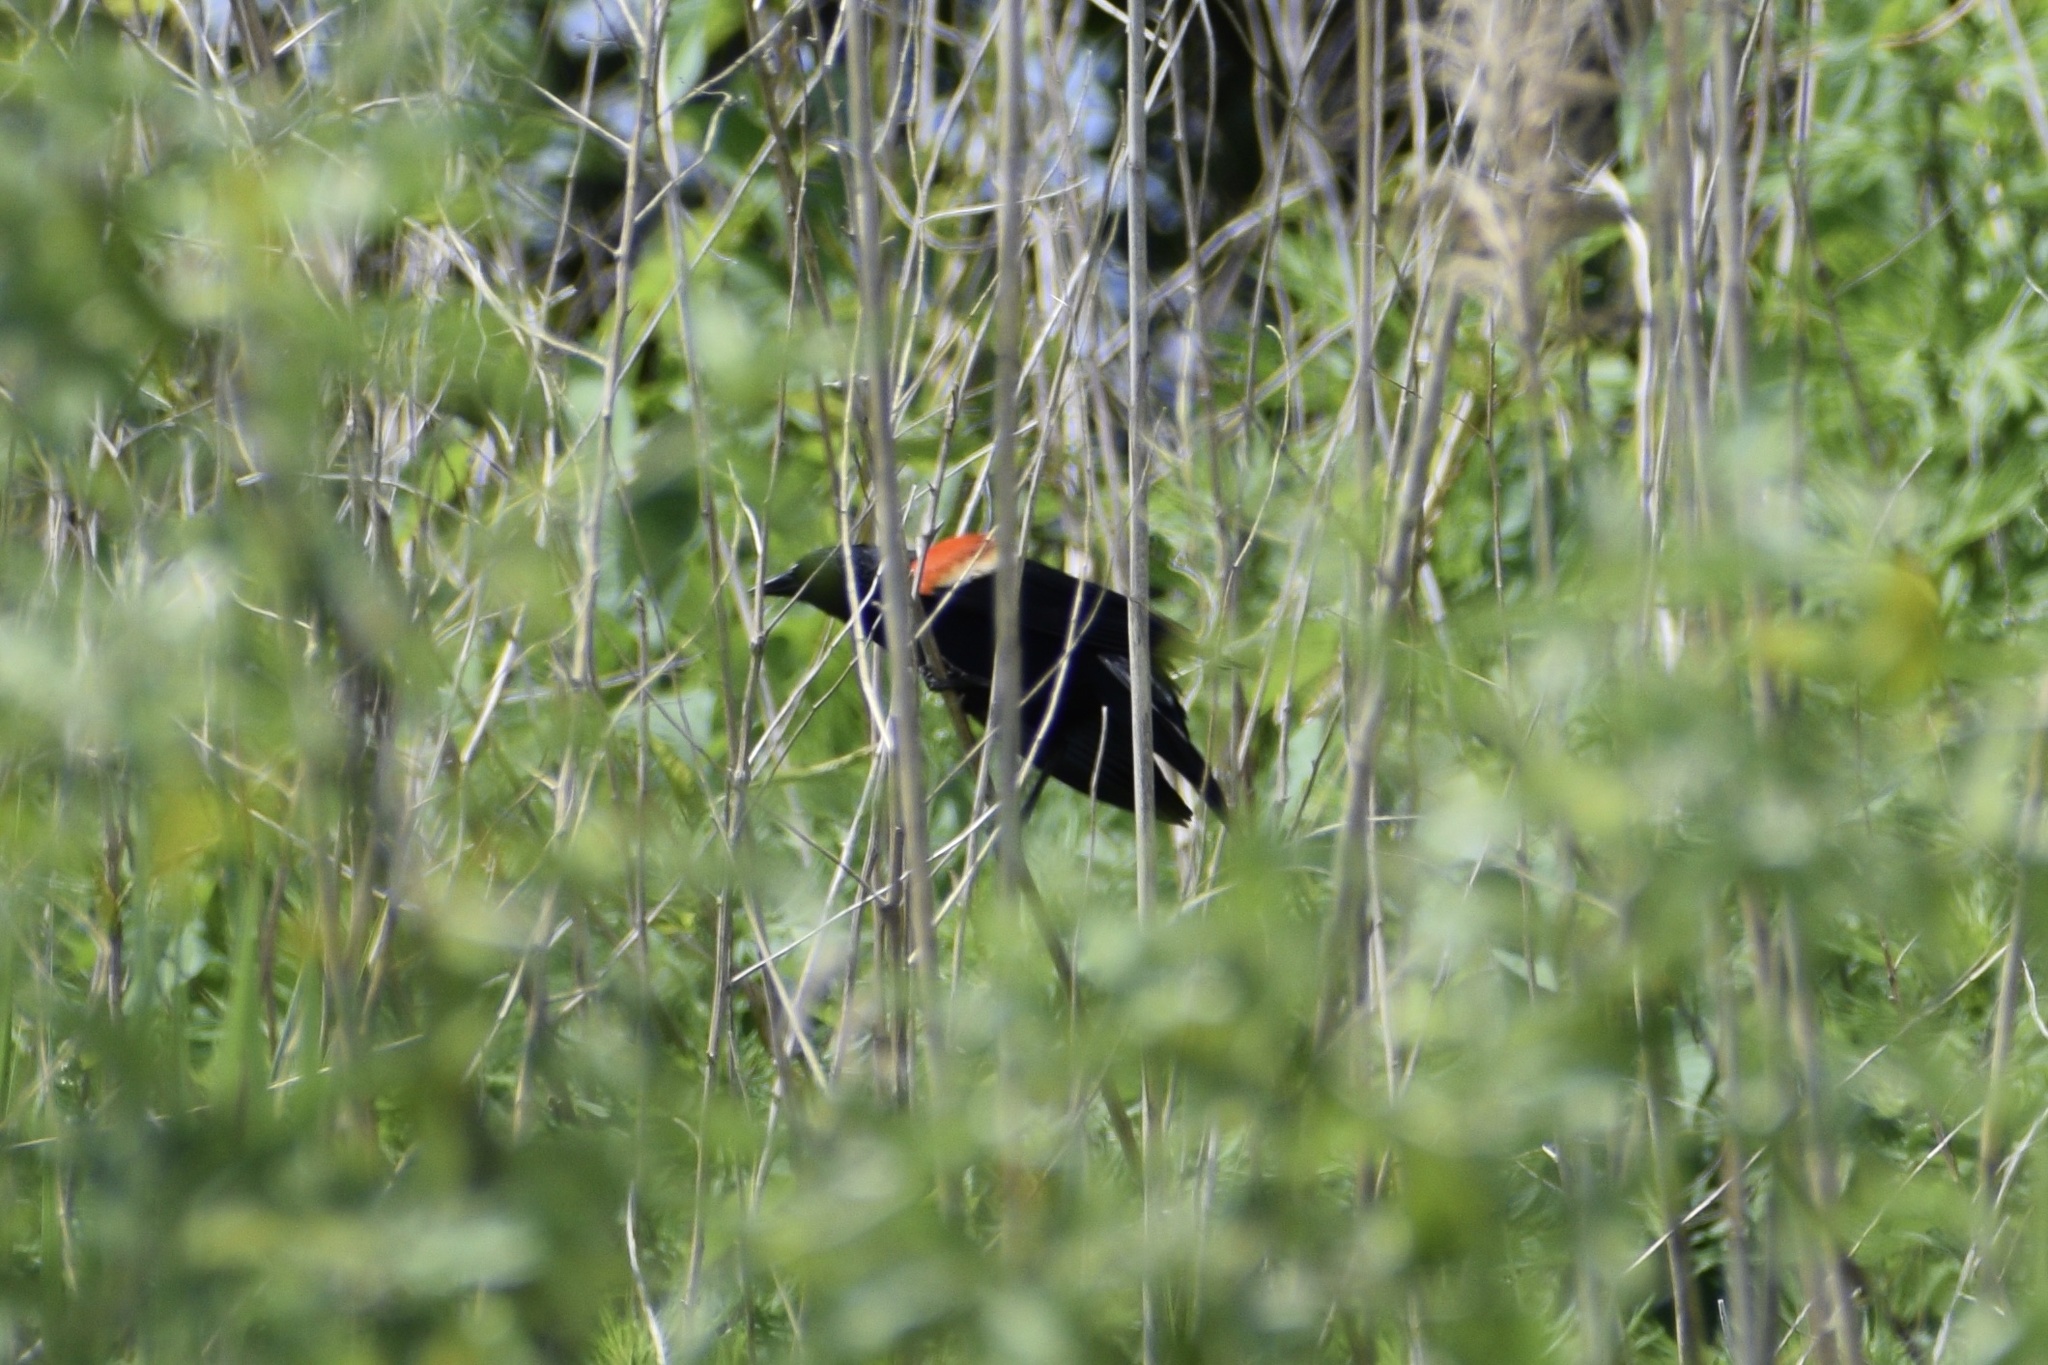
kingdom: Animalia
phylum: Chordata
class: Aves
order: Passeriformes
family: Icteridae
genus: Agelaius
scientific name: Agelaius phoeniceus
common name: Red-winged blackbird
